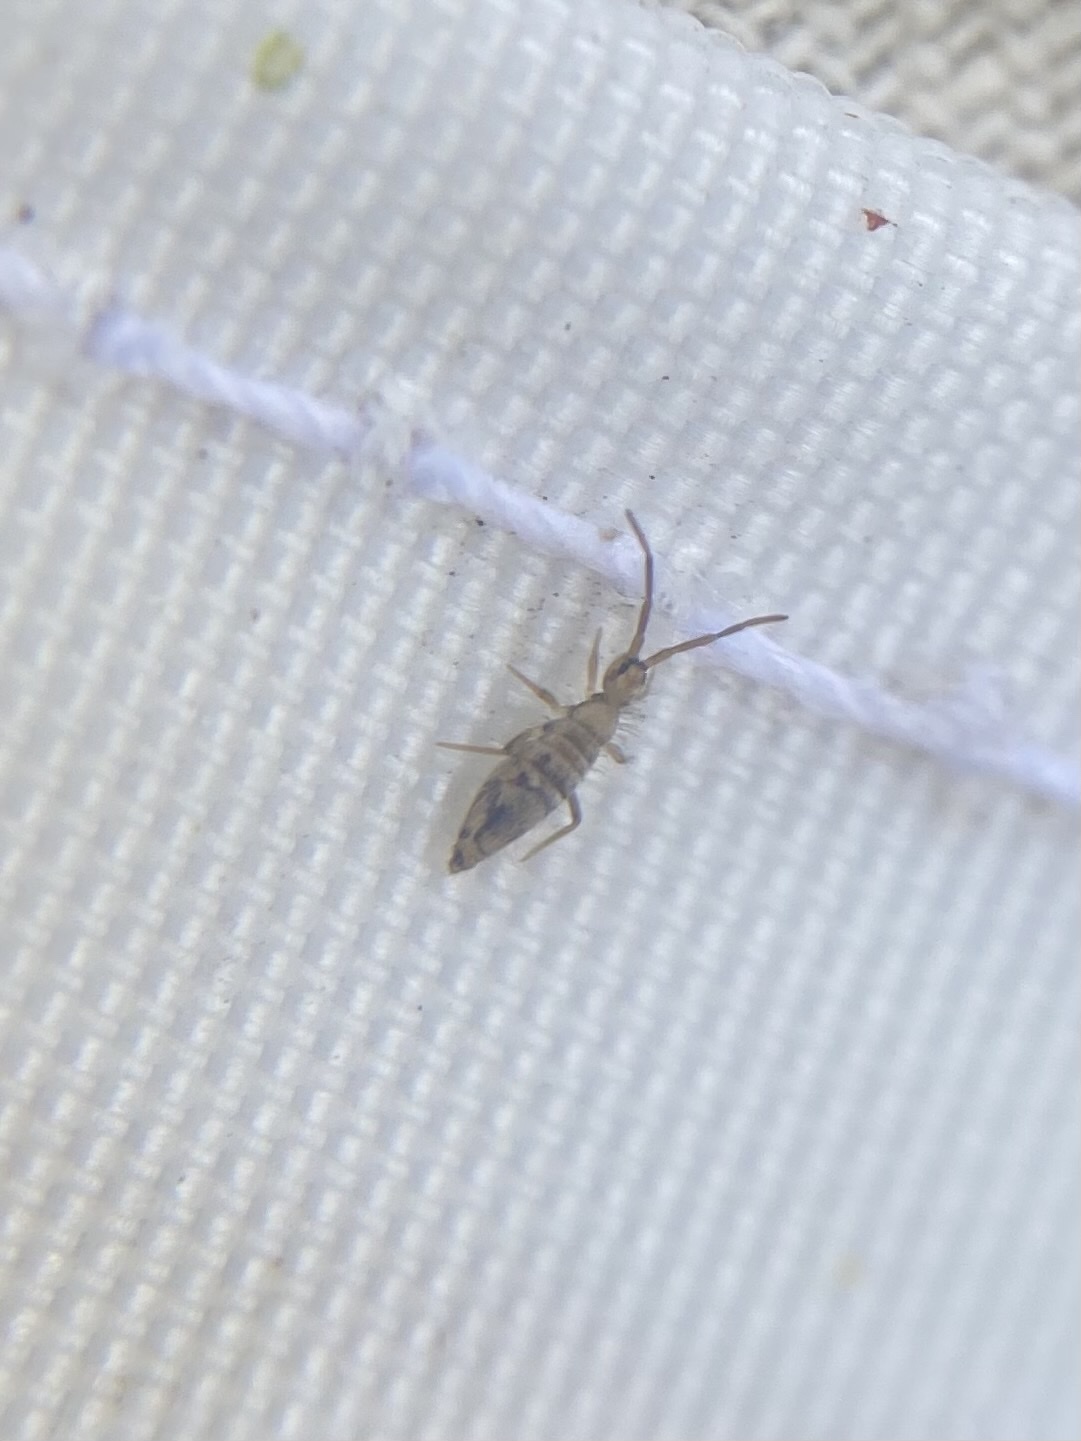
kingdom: Animalia
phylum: Arthropoda
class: Collembola
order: Entomobryomorpha
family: Entomobryidae
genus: Entomobrya
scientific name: Entomobrya nivalis
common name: Cosmopolitan springtail
